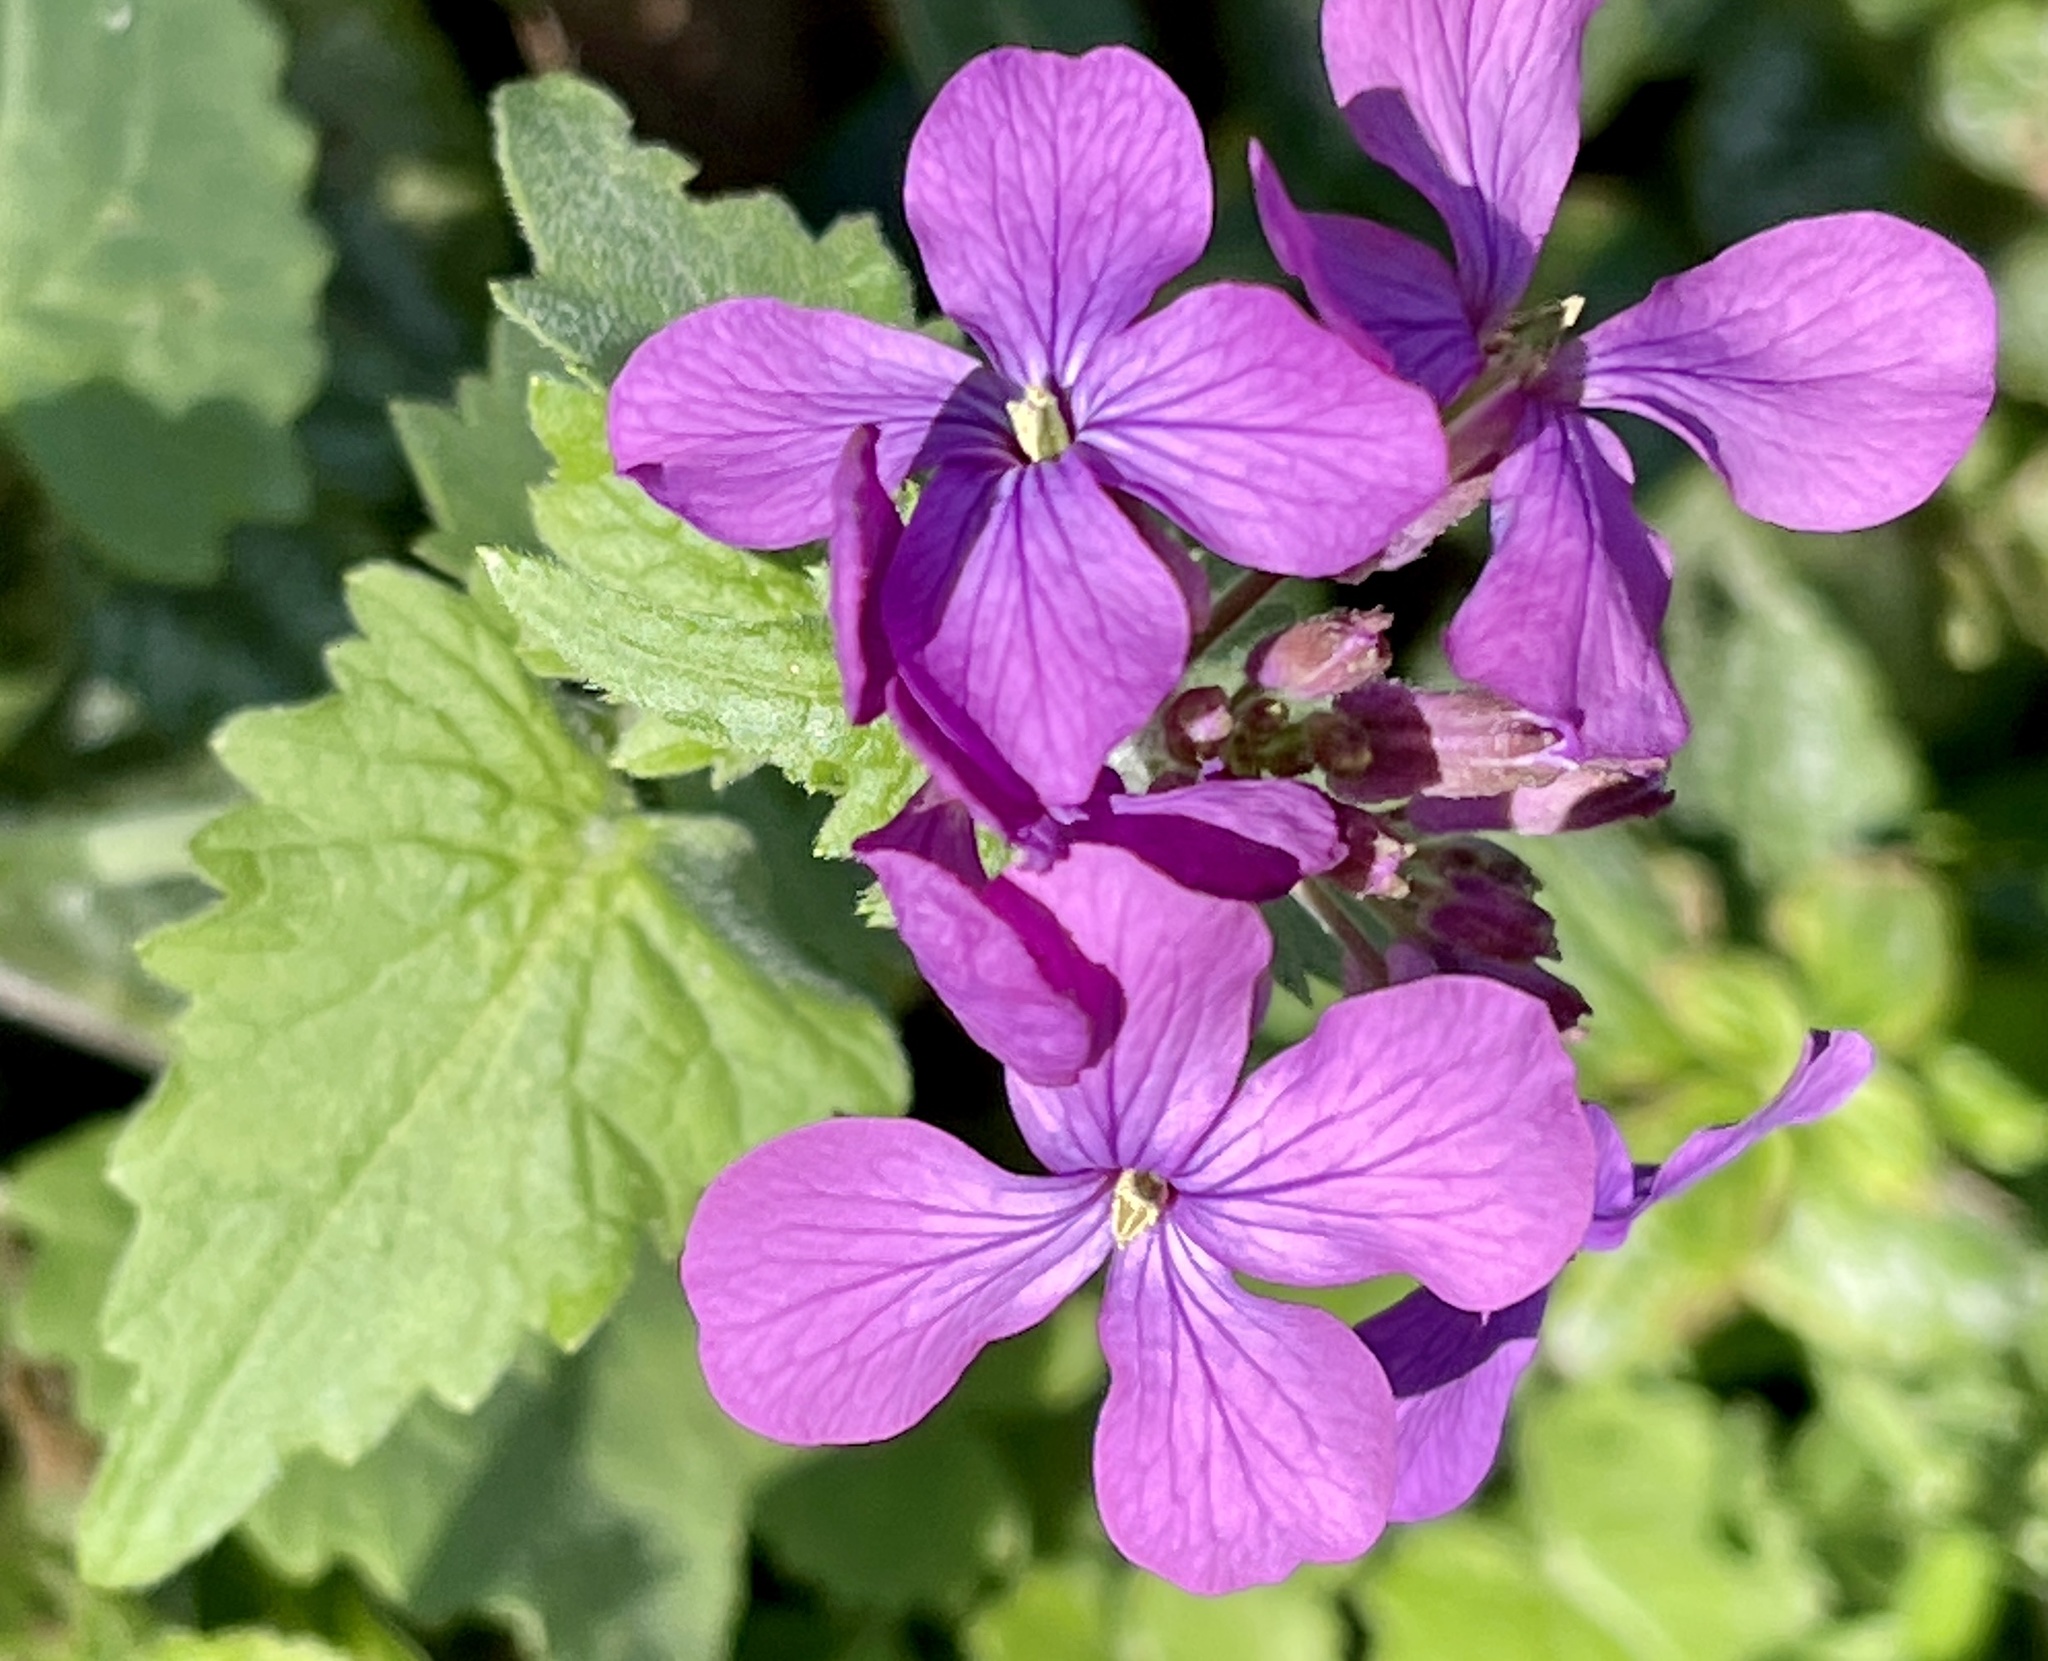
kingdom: Plantae
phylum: Tracheophyta
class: Magnoliopsida
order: Brassicales
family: Brassicaceae
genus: Lunaria
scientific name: Lunaria annua
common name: Honesty
